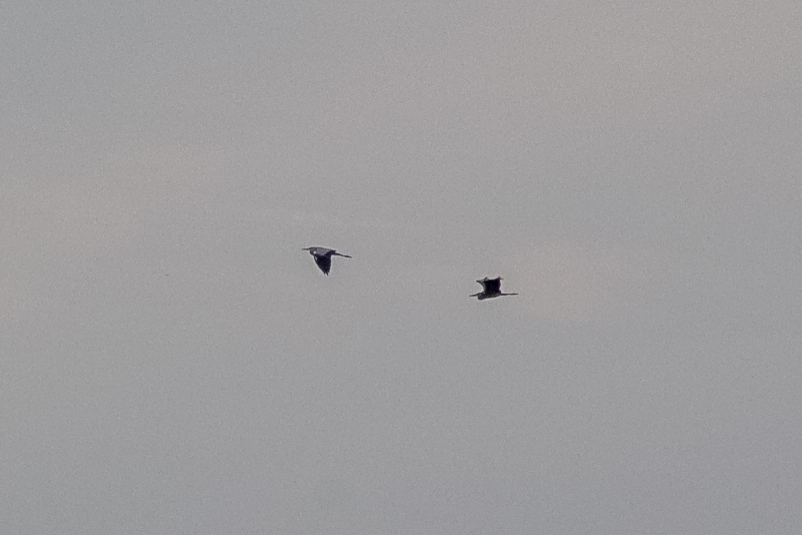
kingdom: Animalia
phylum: Chordata
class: Aves
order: Pelecaniformes
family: Ardeidae
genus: Ardea
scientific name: Ardea cinerea
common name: Grey heron
